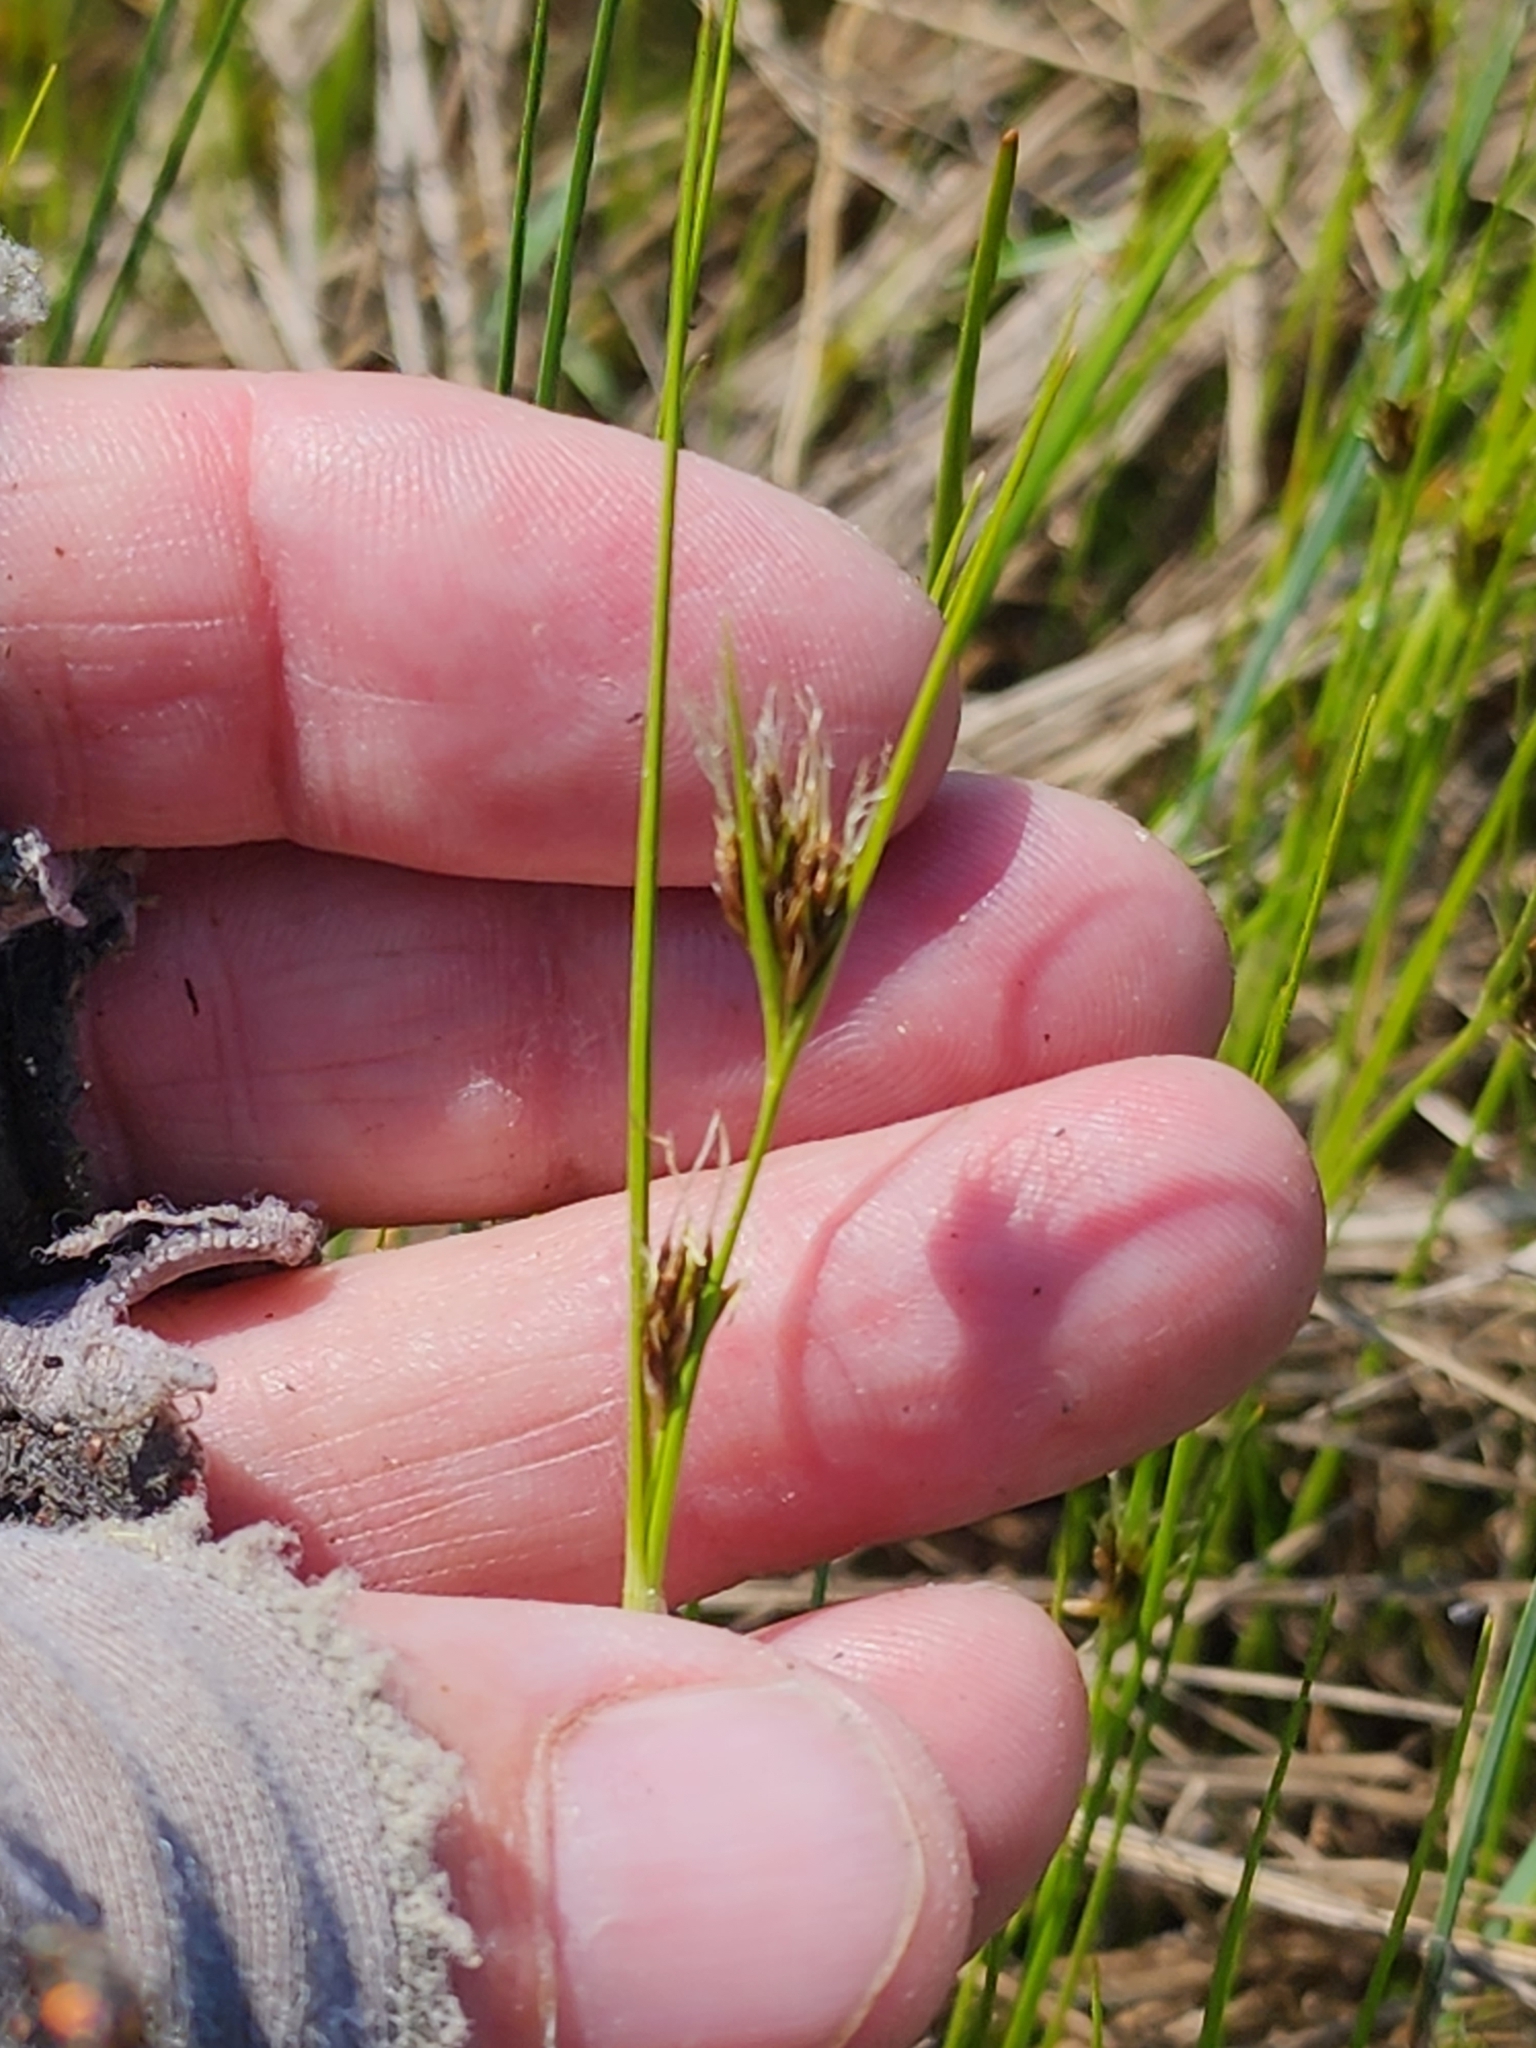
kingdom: Plantae
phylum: Tracheophyta
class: Liliopsida
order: Poales
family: Cyperaceae
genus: Rhynchospora
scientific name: Rhynchospora fusca
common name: Brown beak-sedge
